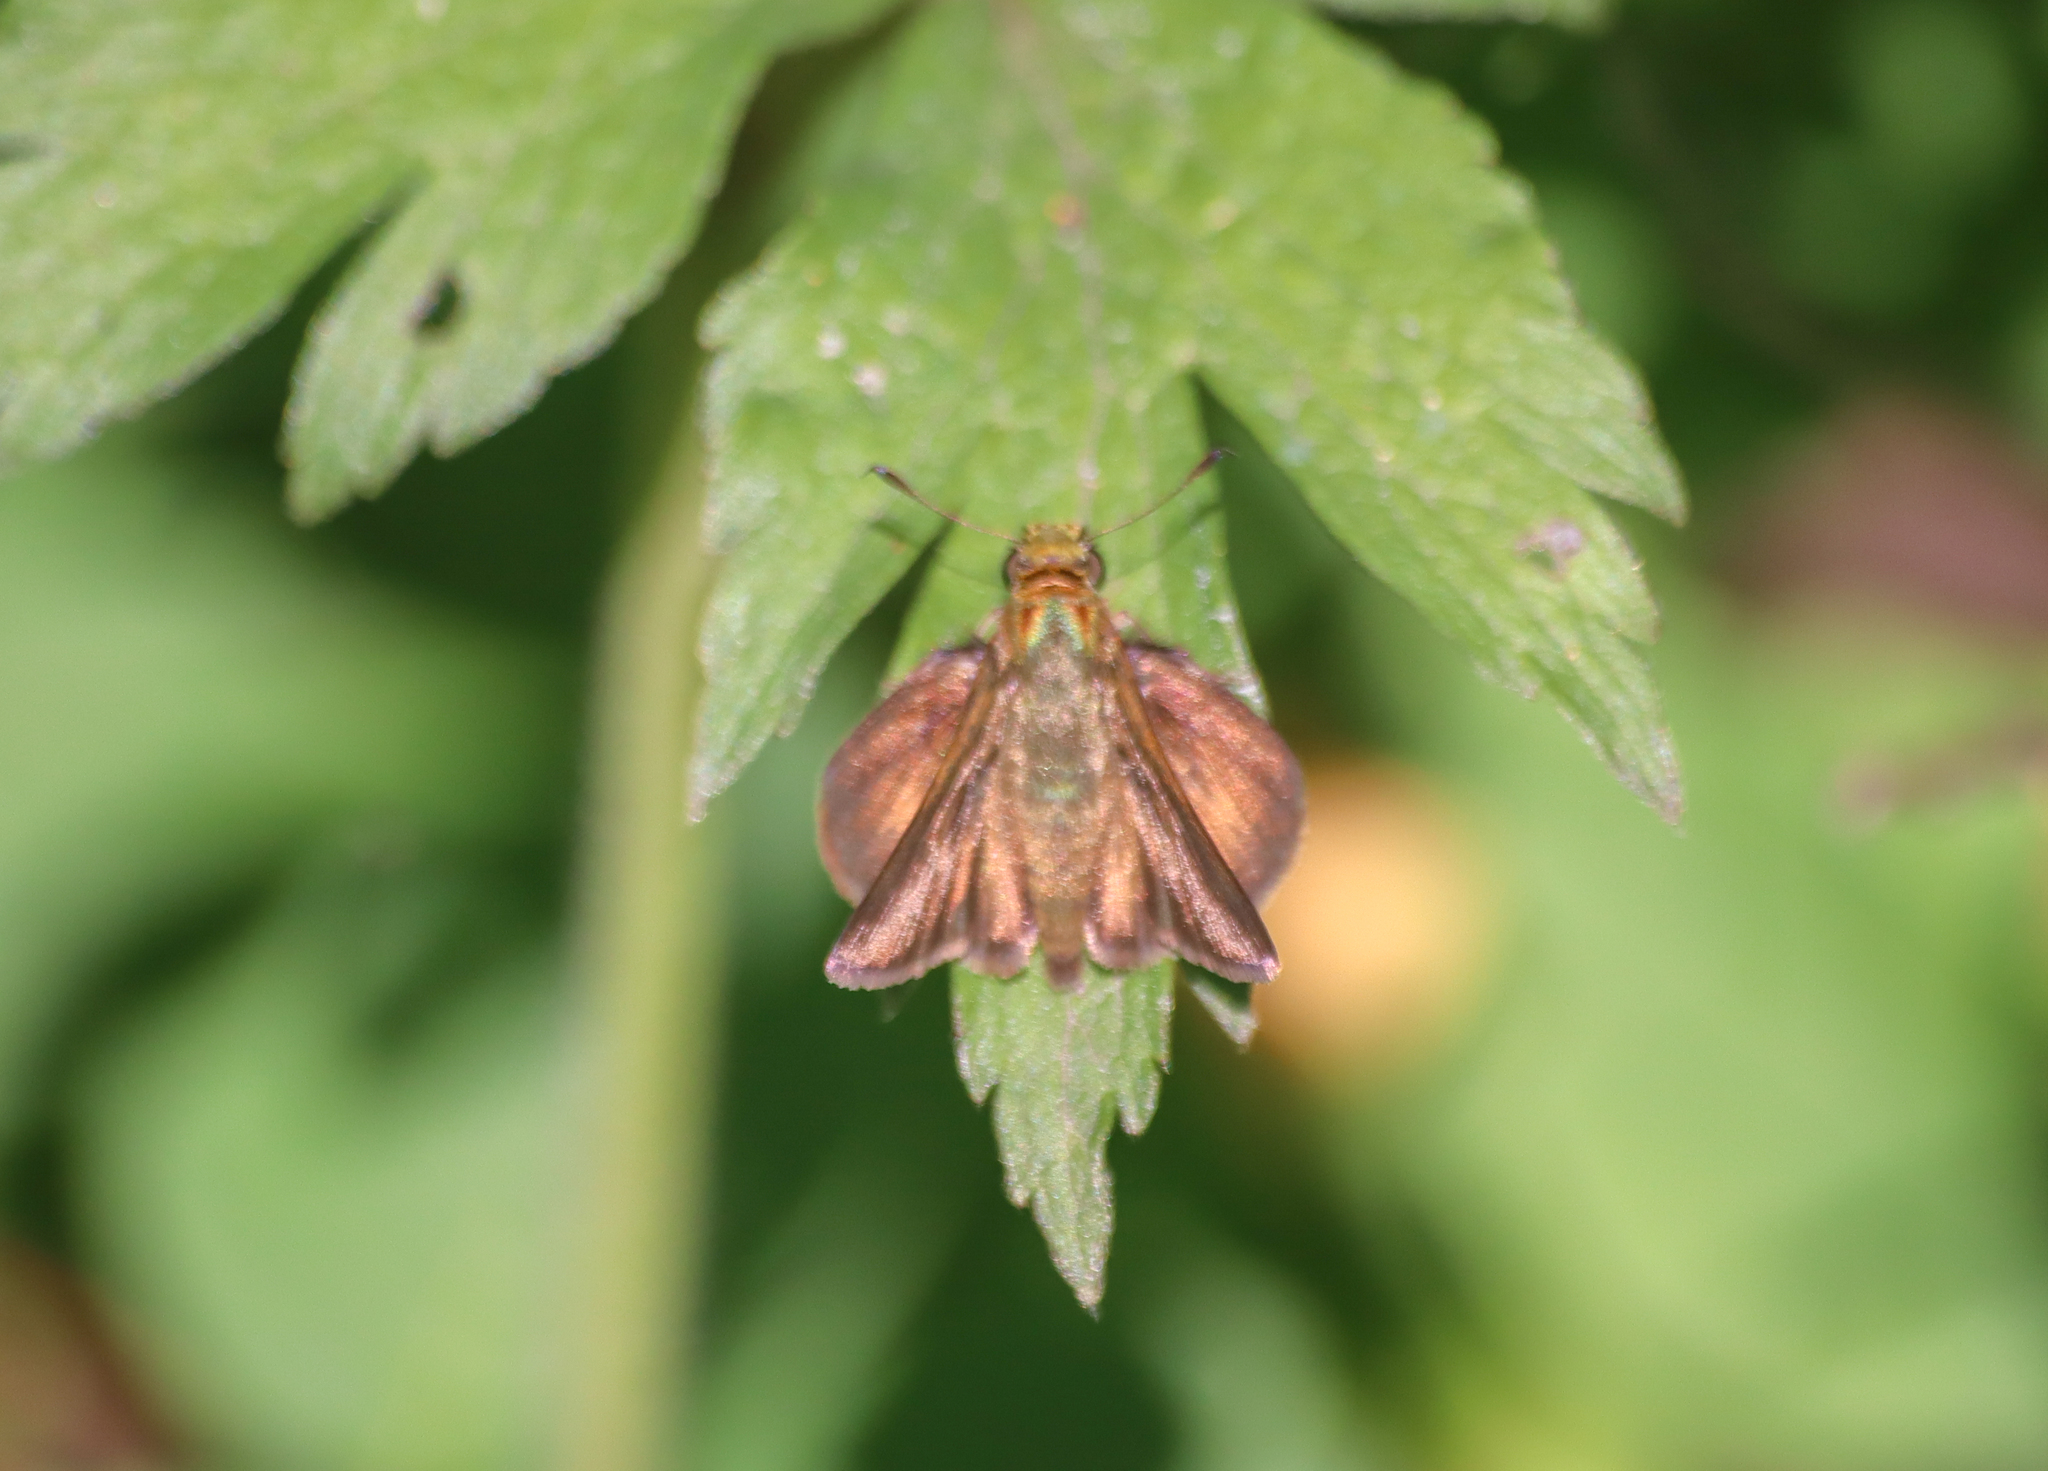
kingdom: Animalia
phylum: Arthropoda
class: Insecta
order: Lepidoptera
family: Hesperiidae
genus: Euphyes
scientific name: Euphyes vestris
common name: Dun skipper
